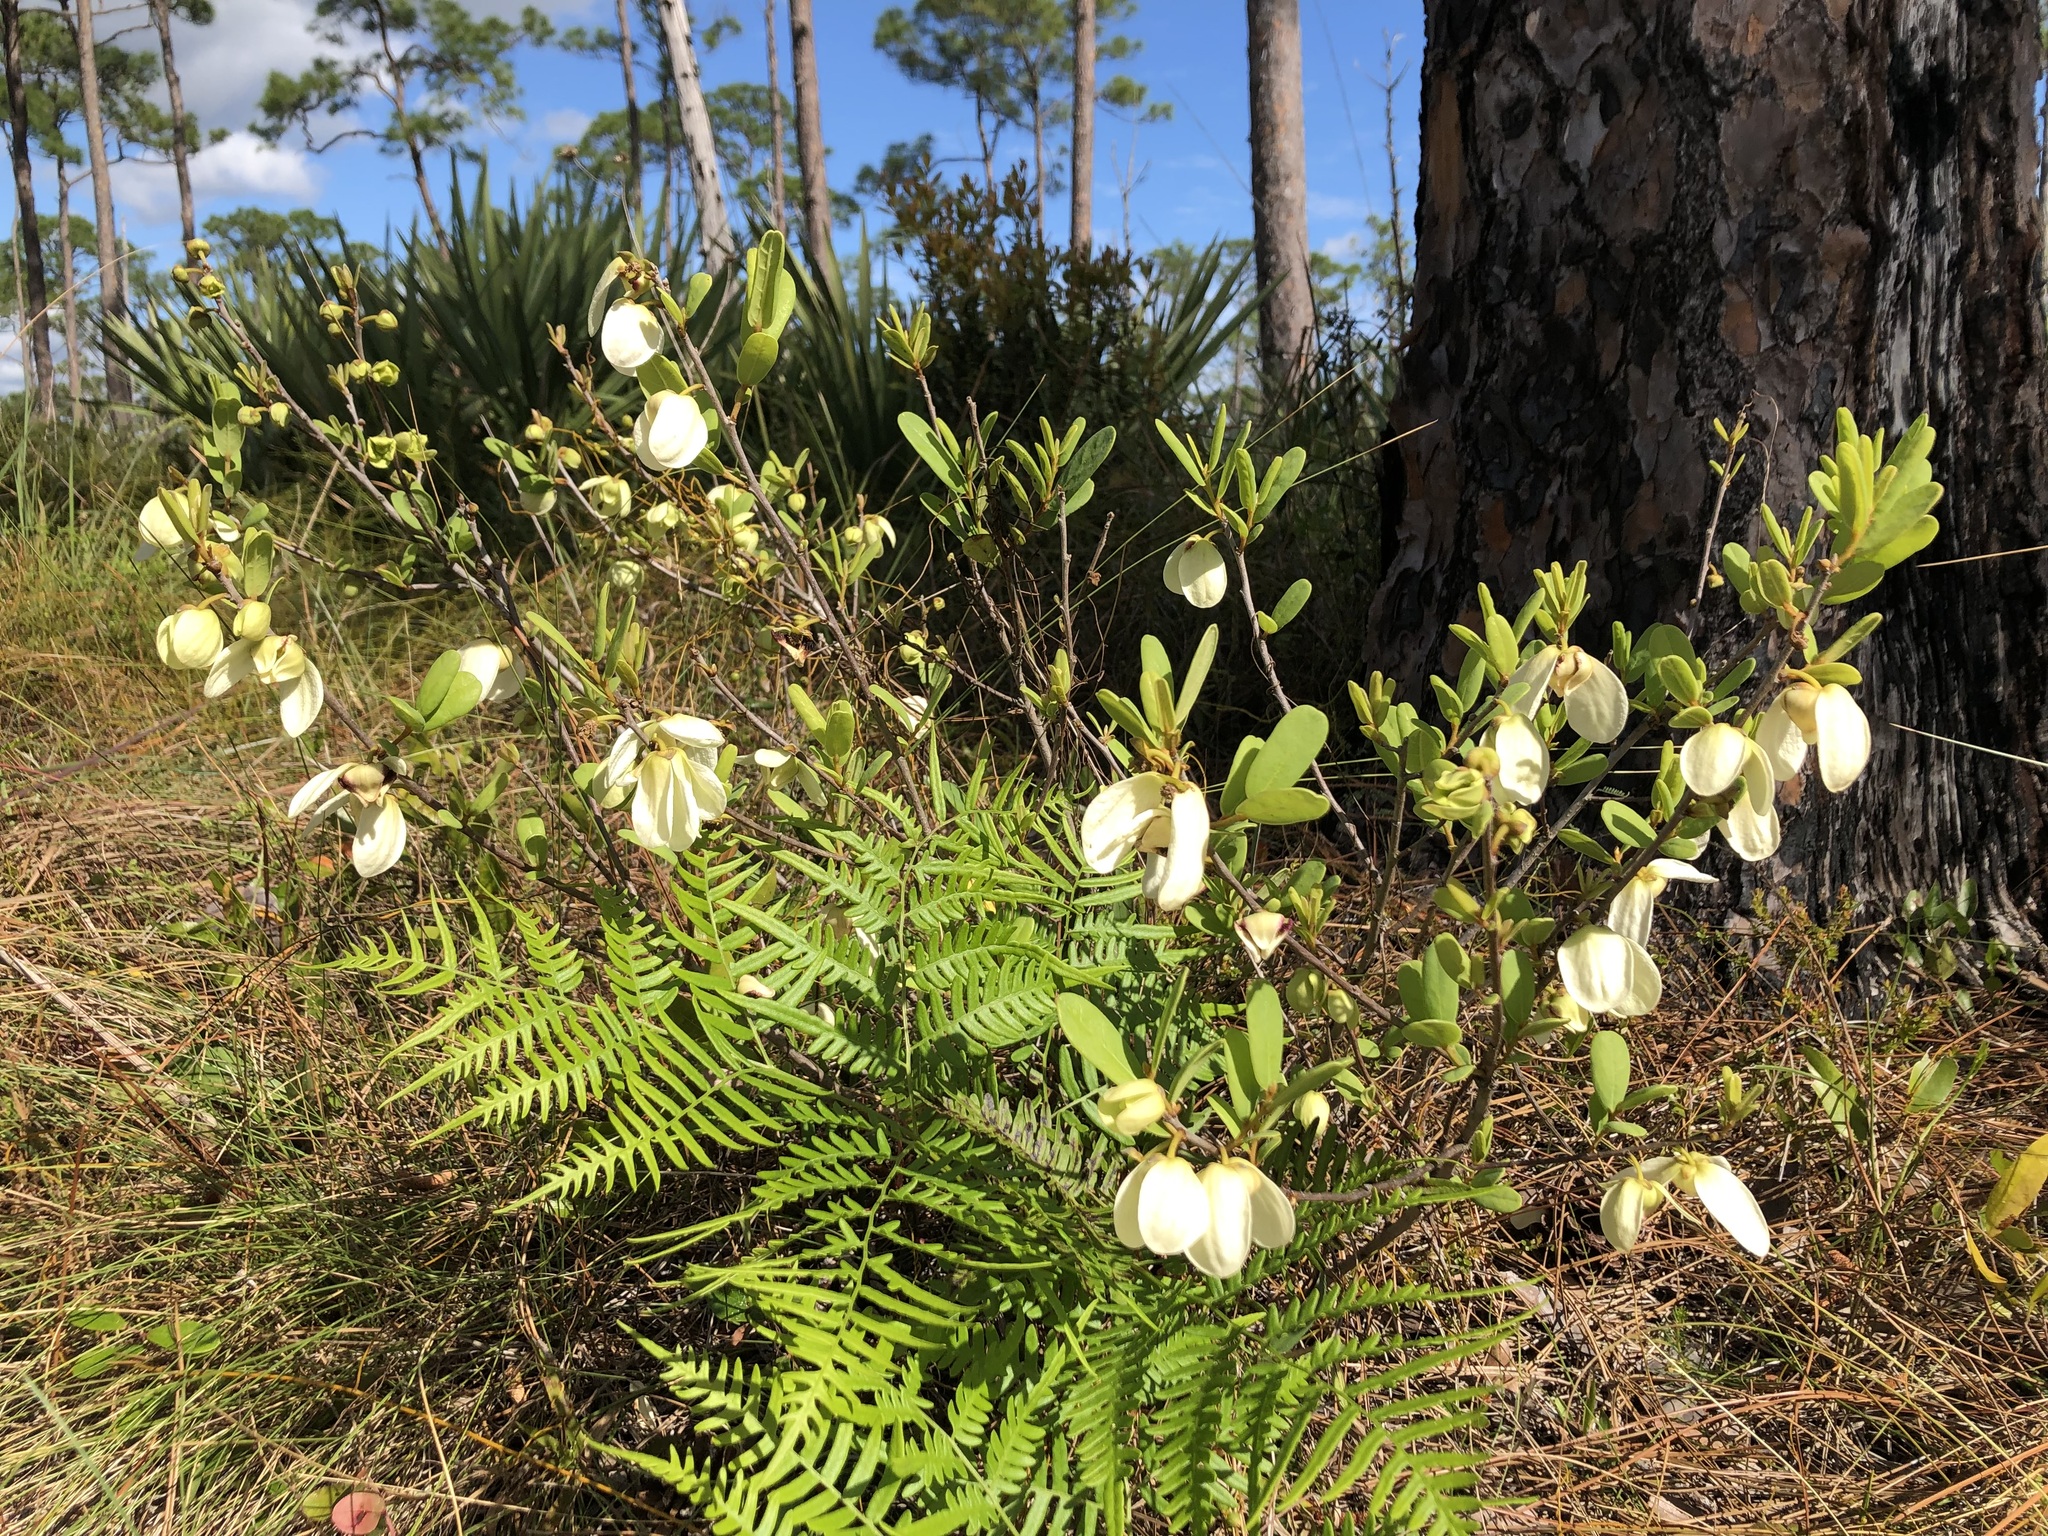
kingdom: Plantae
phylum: Tracheophyta
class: Magnoliopsida
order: Magnoliales
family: Annonaceae
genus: Asimina
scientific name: Asimina reticulata
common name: Flag pawpaw
